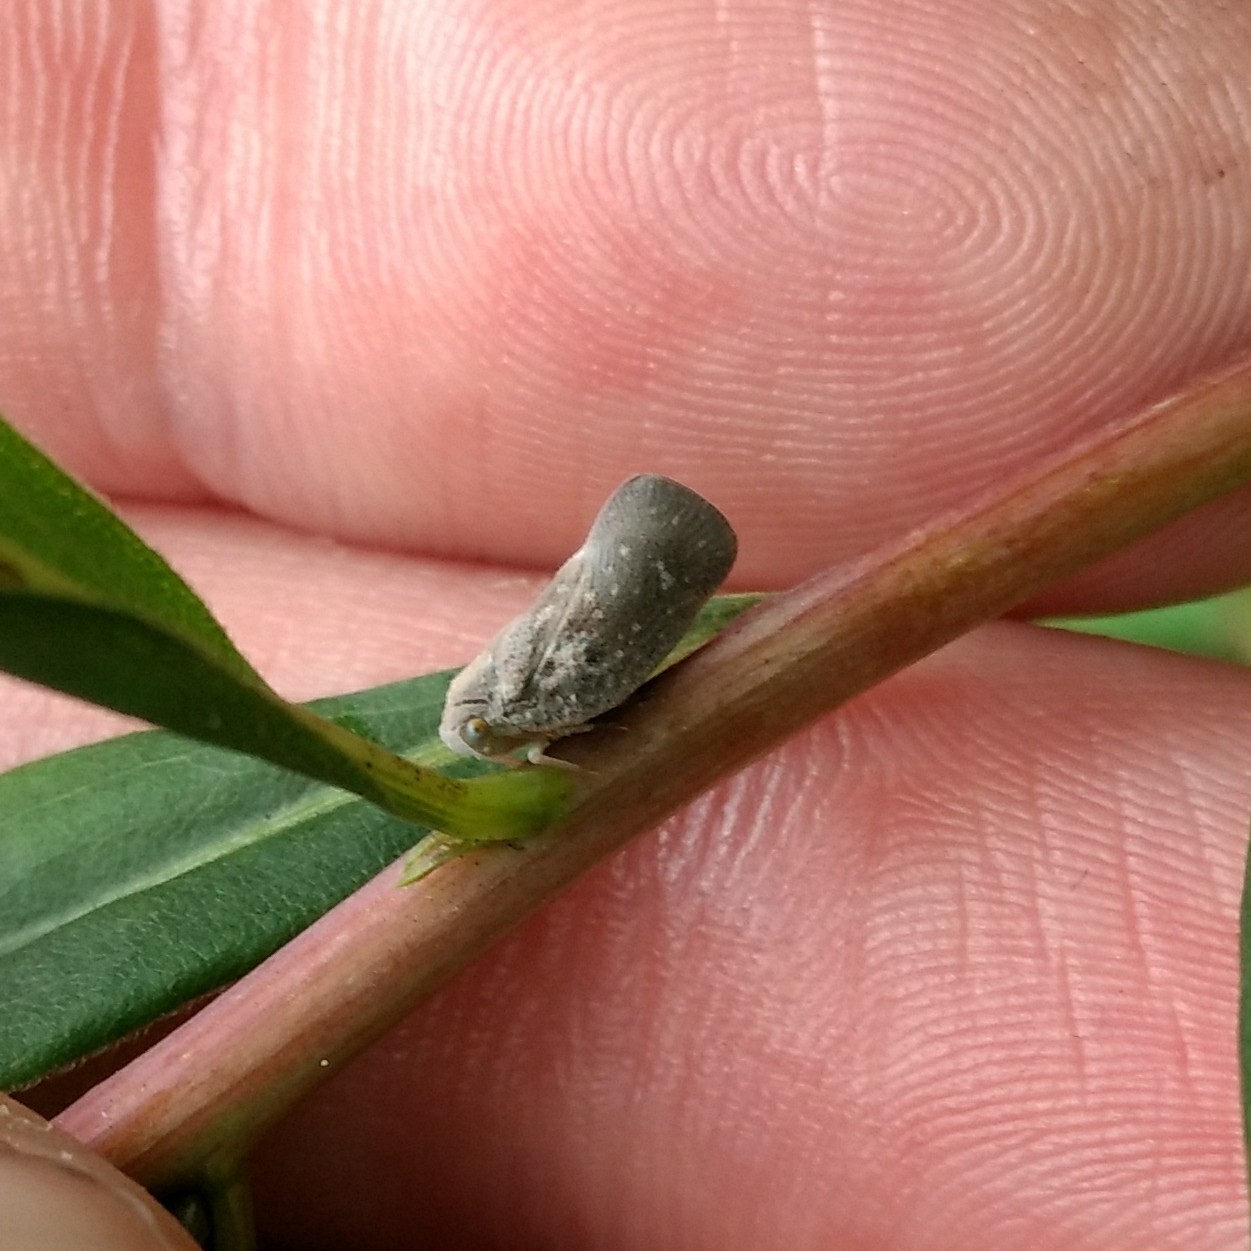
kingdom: Animalia
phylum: Arthropoda
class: Insecta
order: Hemiptera
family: Flatidae
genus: Metcalfa
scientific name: Metcalfa pruinosa
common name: Citrus flatid planthopper
